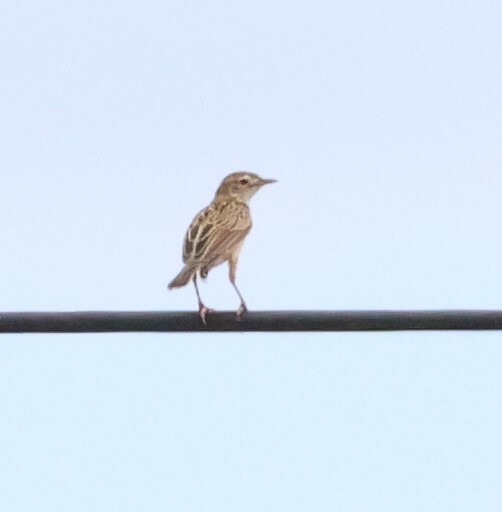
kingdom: Animalia
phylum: Chordata
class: Aves
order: Passeriformes
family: Cisticolidae
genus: Cisticola
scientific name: Cisticola aridulus
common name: Desert cisticola
